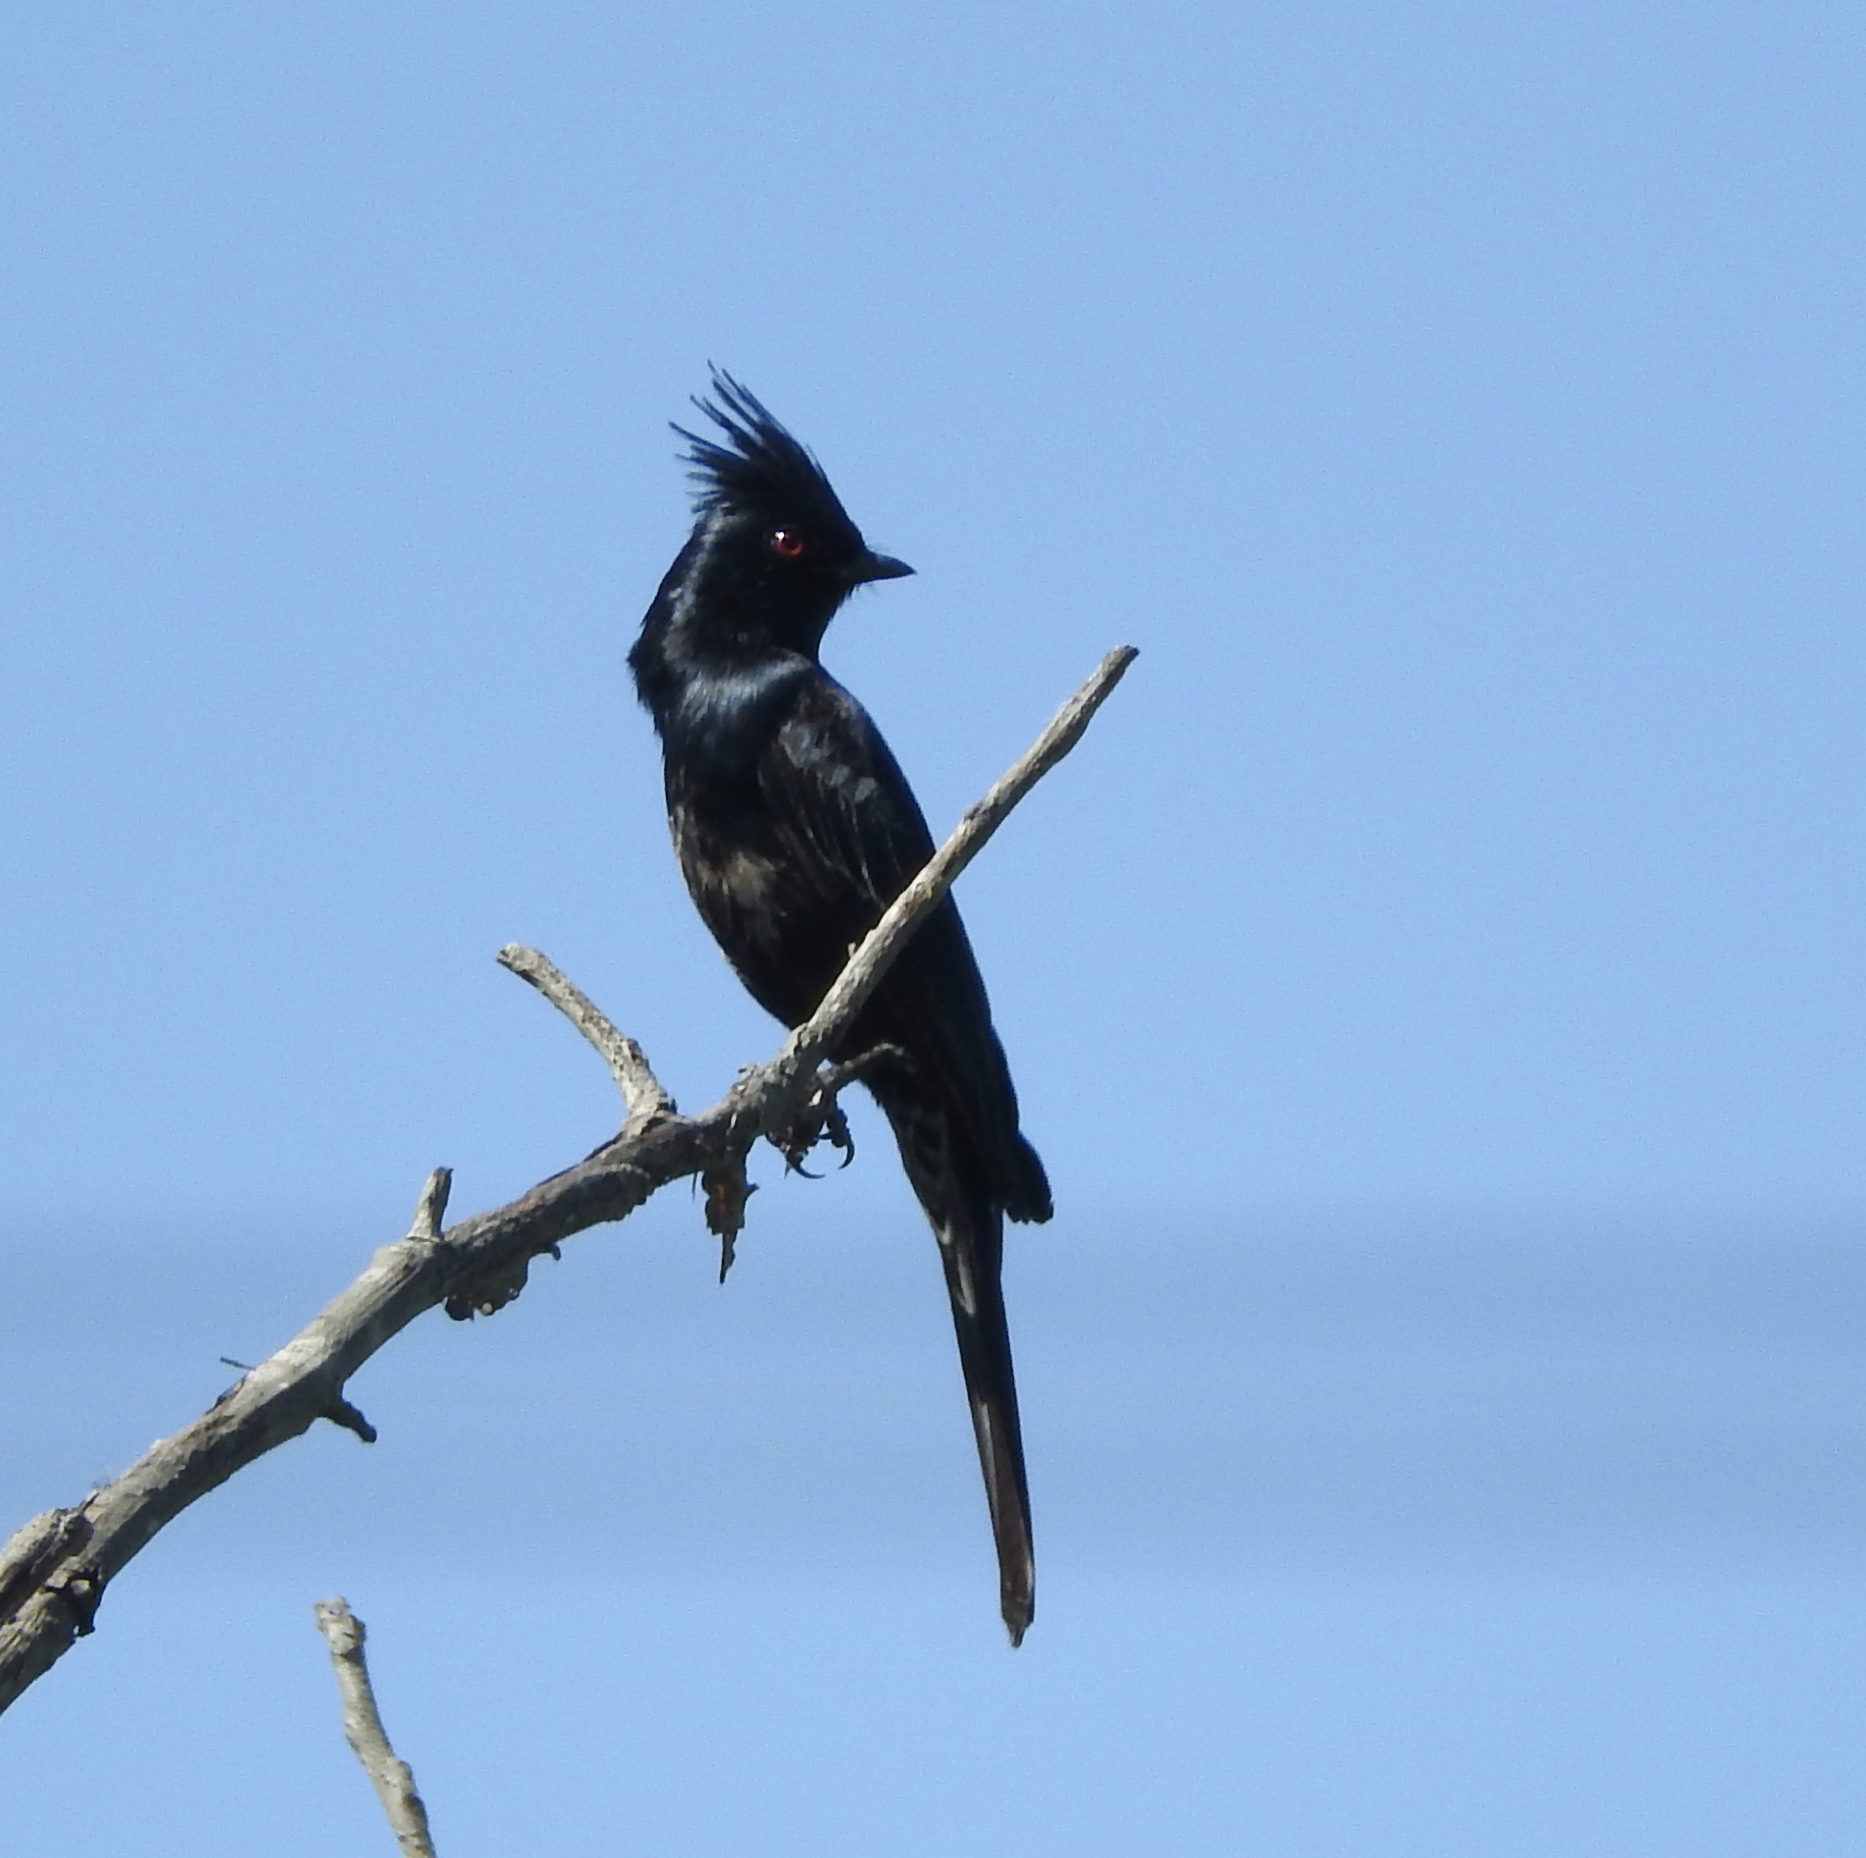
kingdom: Animalia
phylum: Chordata
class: Aves
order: Passeriformes
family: Ptilogonatidae
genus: Phainopepla
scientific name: Phainopepla nitens
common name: Phainopepla
